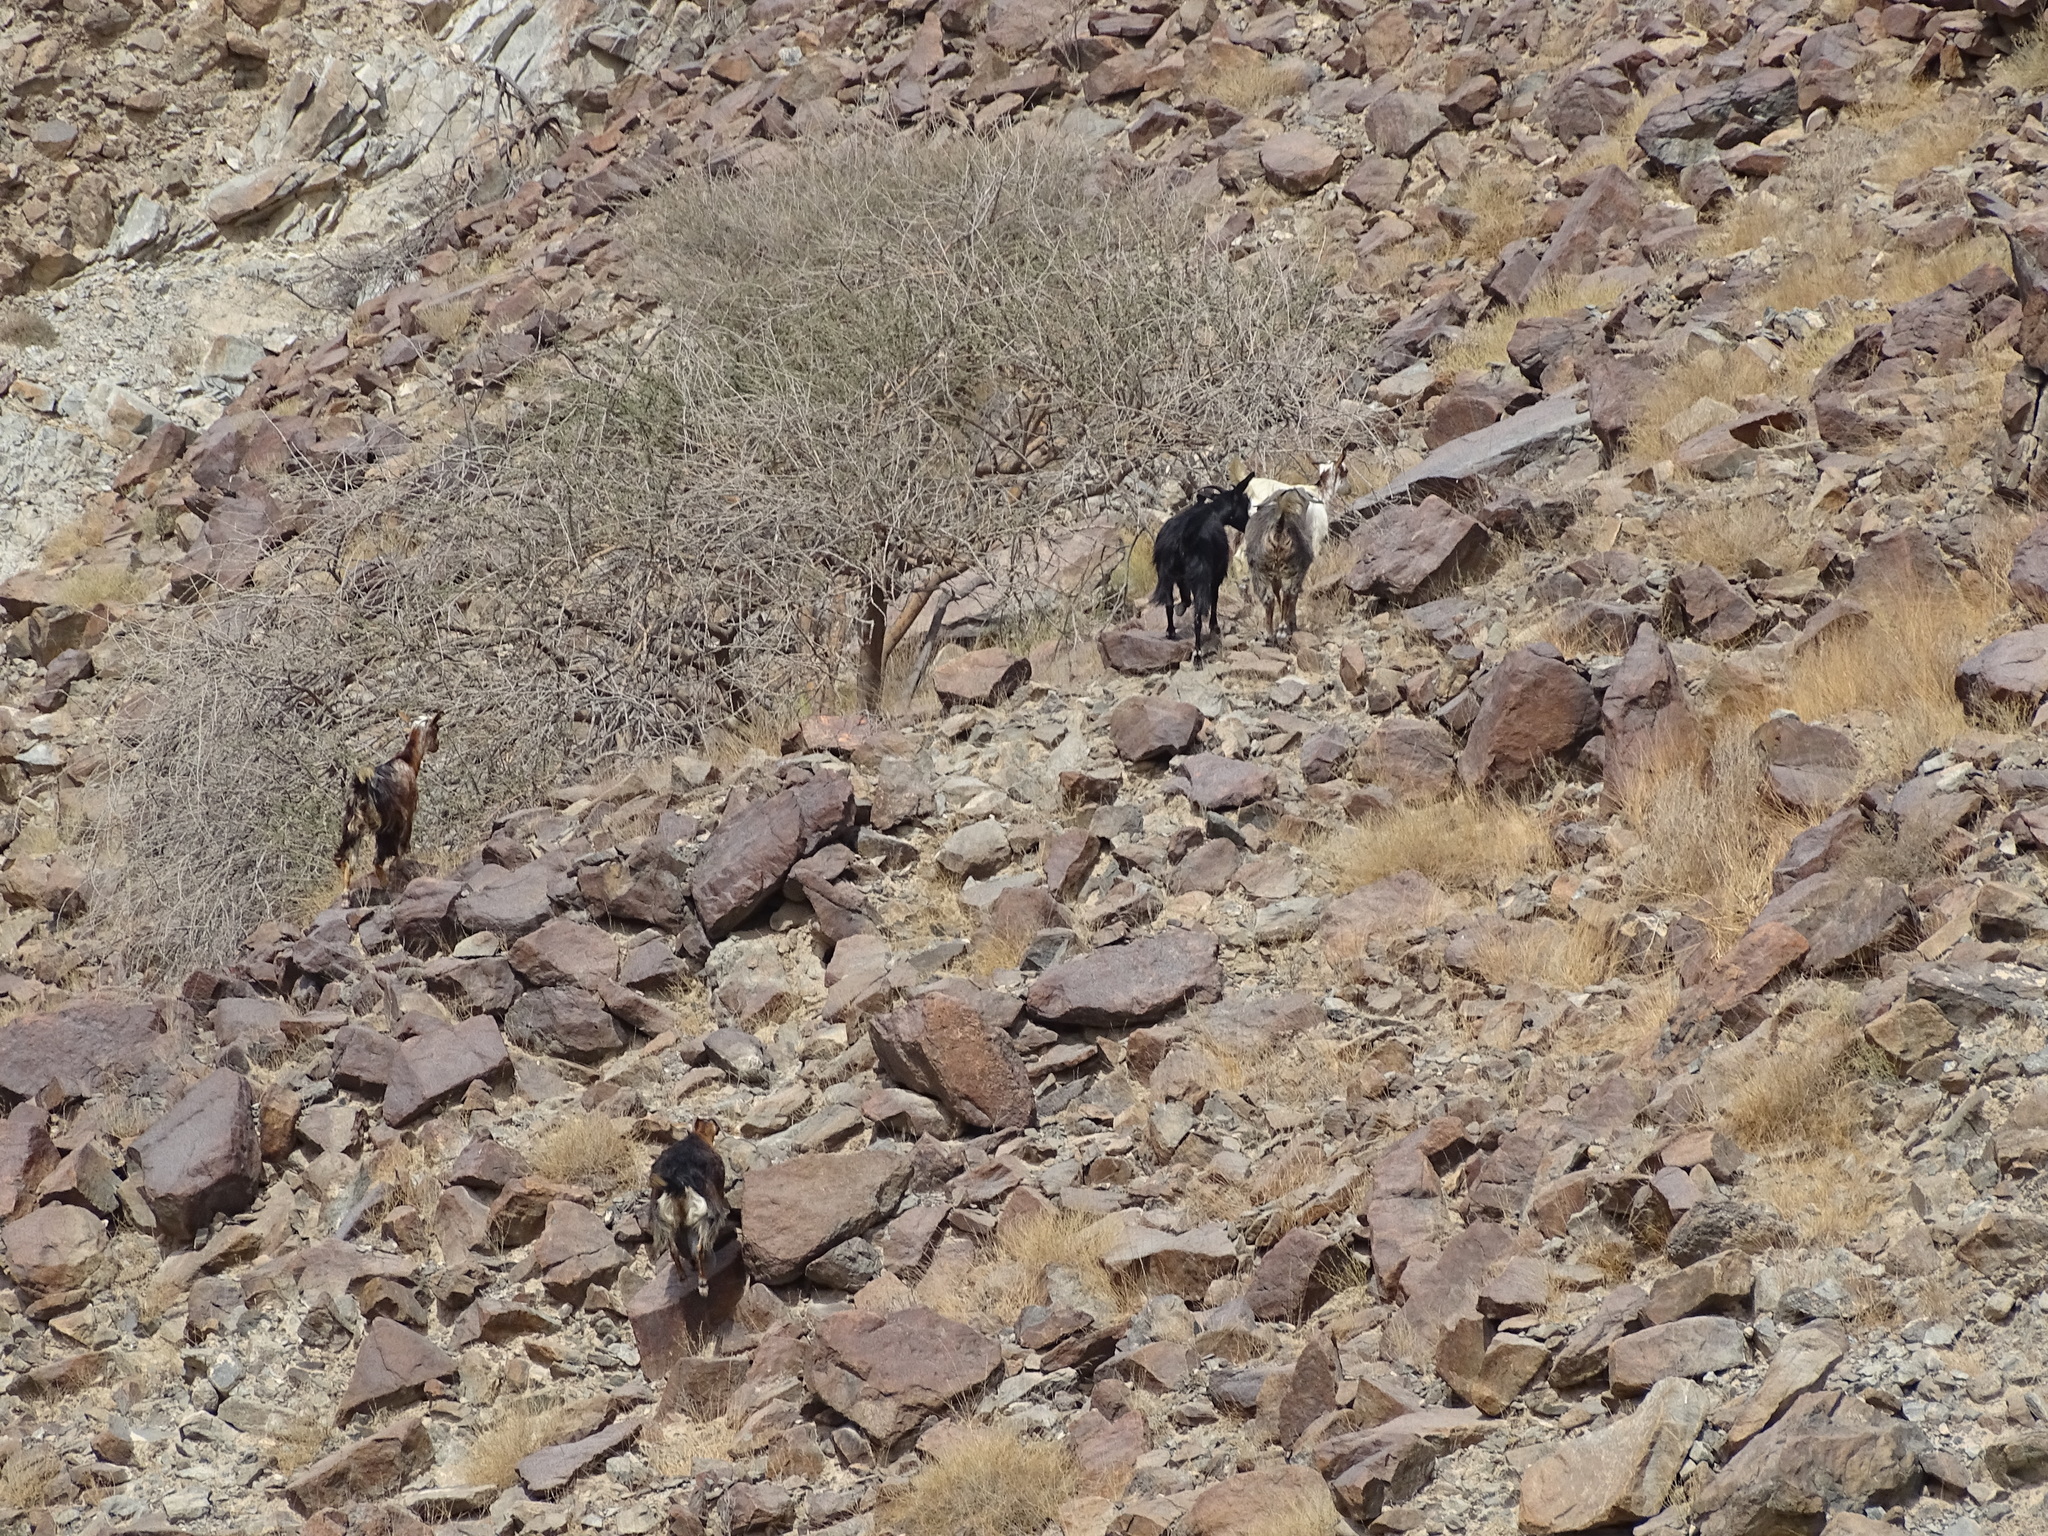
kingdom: Animalia
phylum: Chordata
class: Mammalia
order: Artiodactyla
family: Bovidae
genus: Capra
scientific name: Capra hircus
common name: Domestic goat
